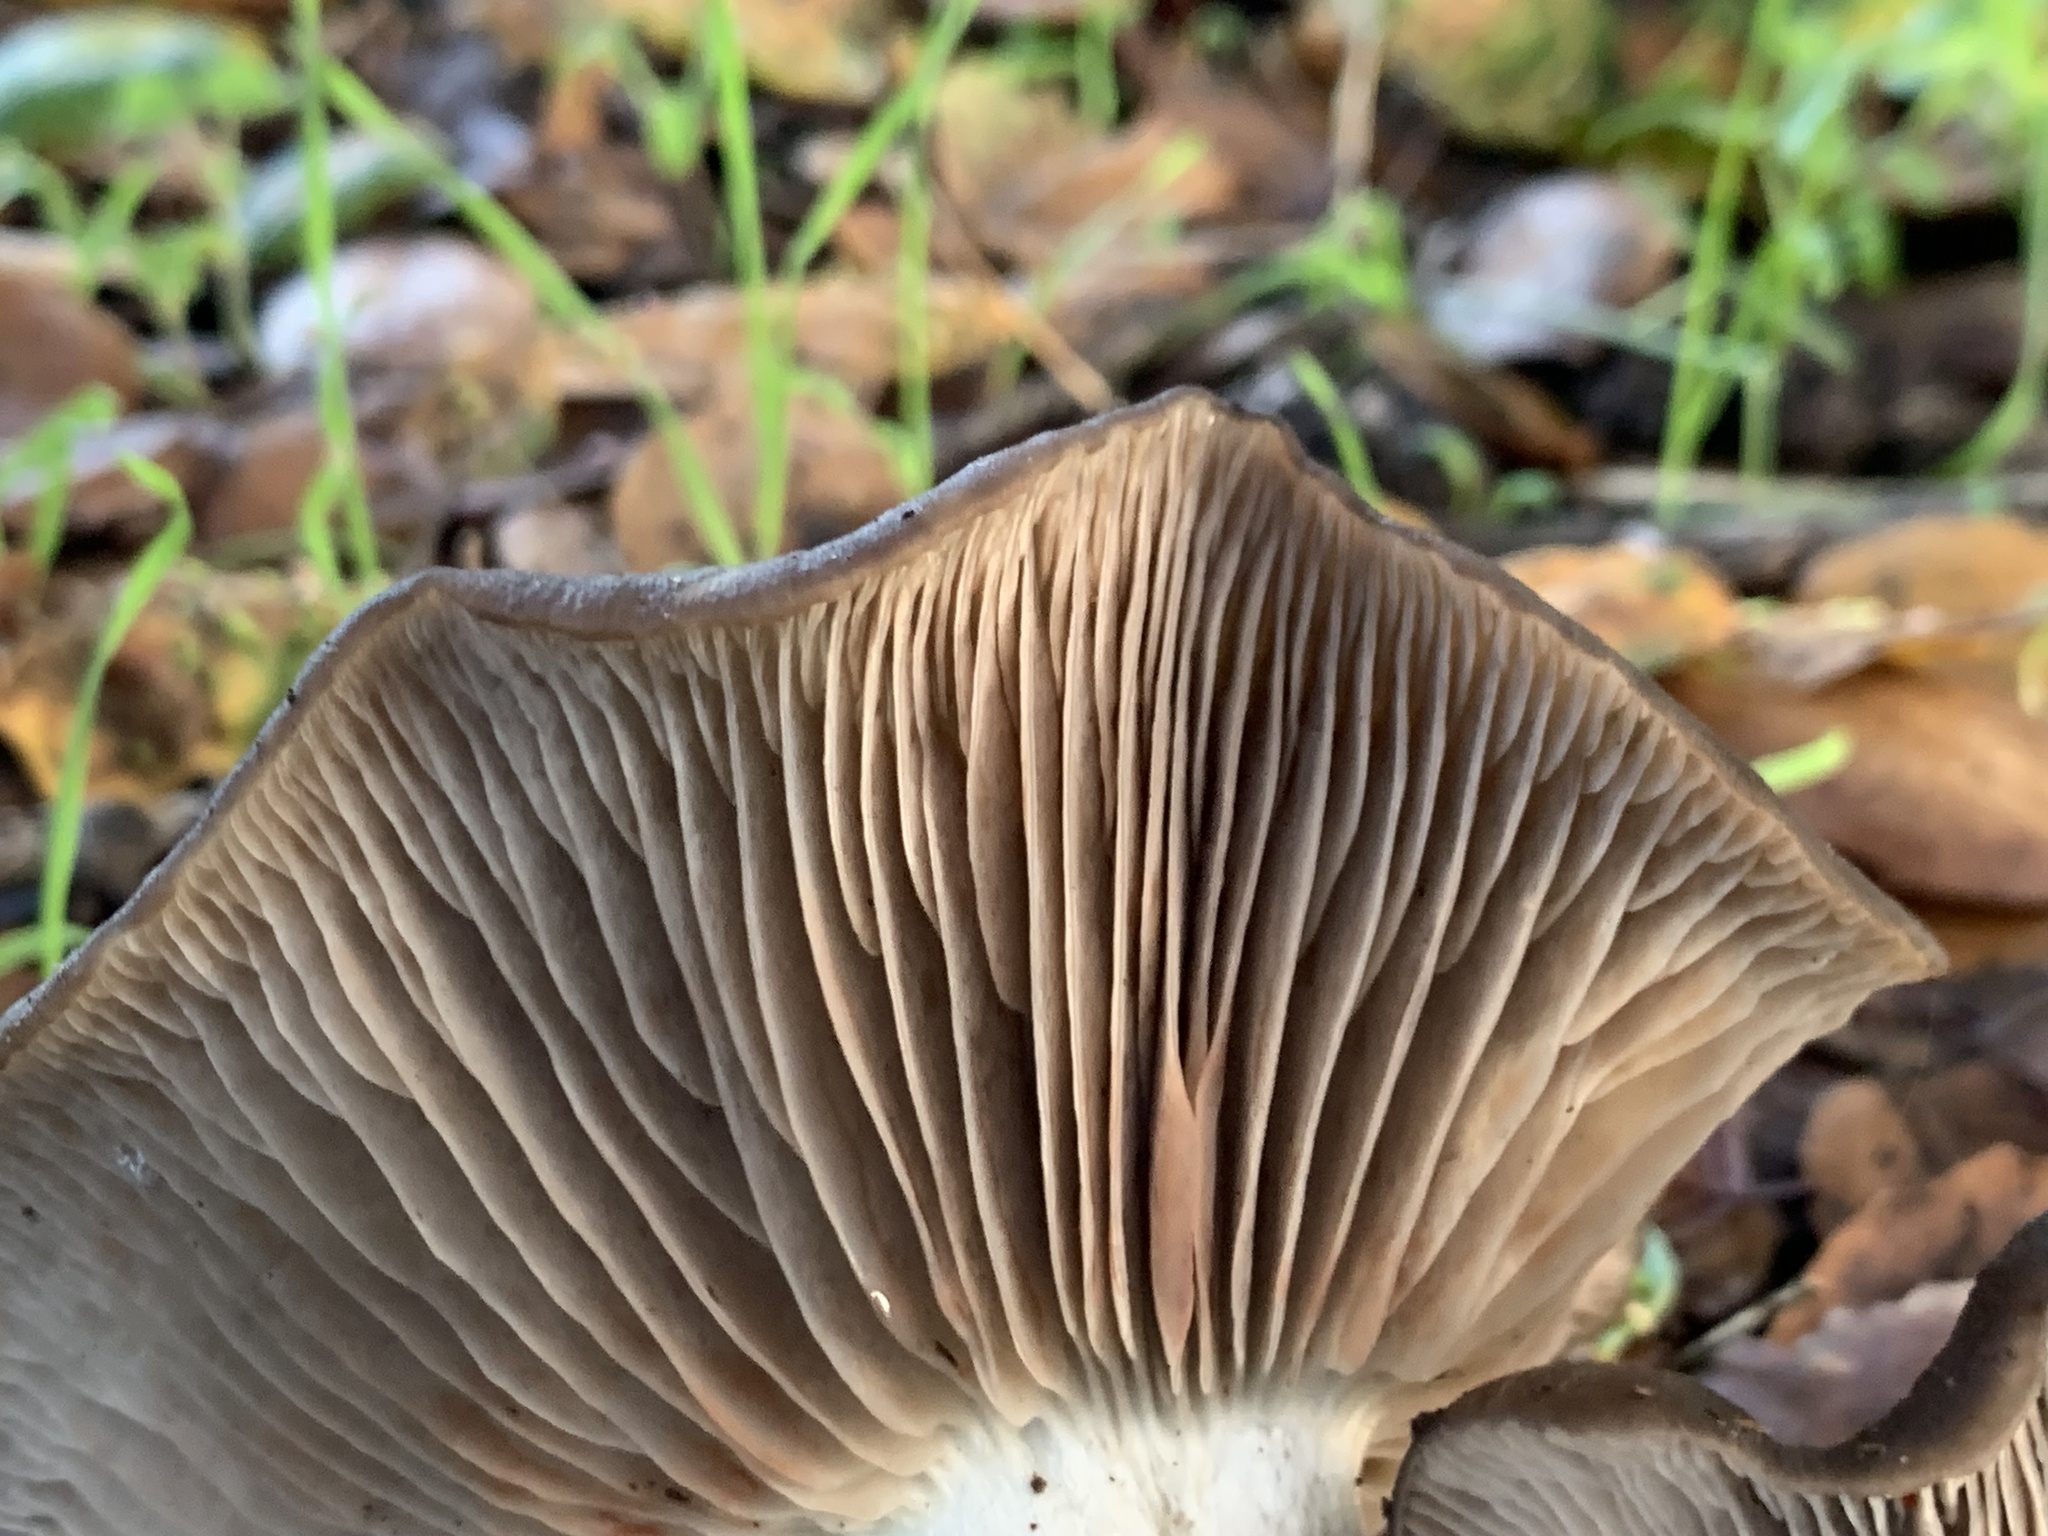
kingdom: Fungi
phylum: Basidiomycota
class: Agaricomycetes
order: Agaricales
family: Entolomataceae
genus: Entoloma
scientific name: Entoloma ferruginans
